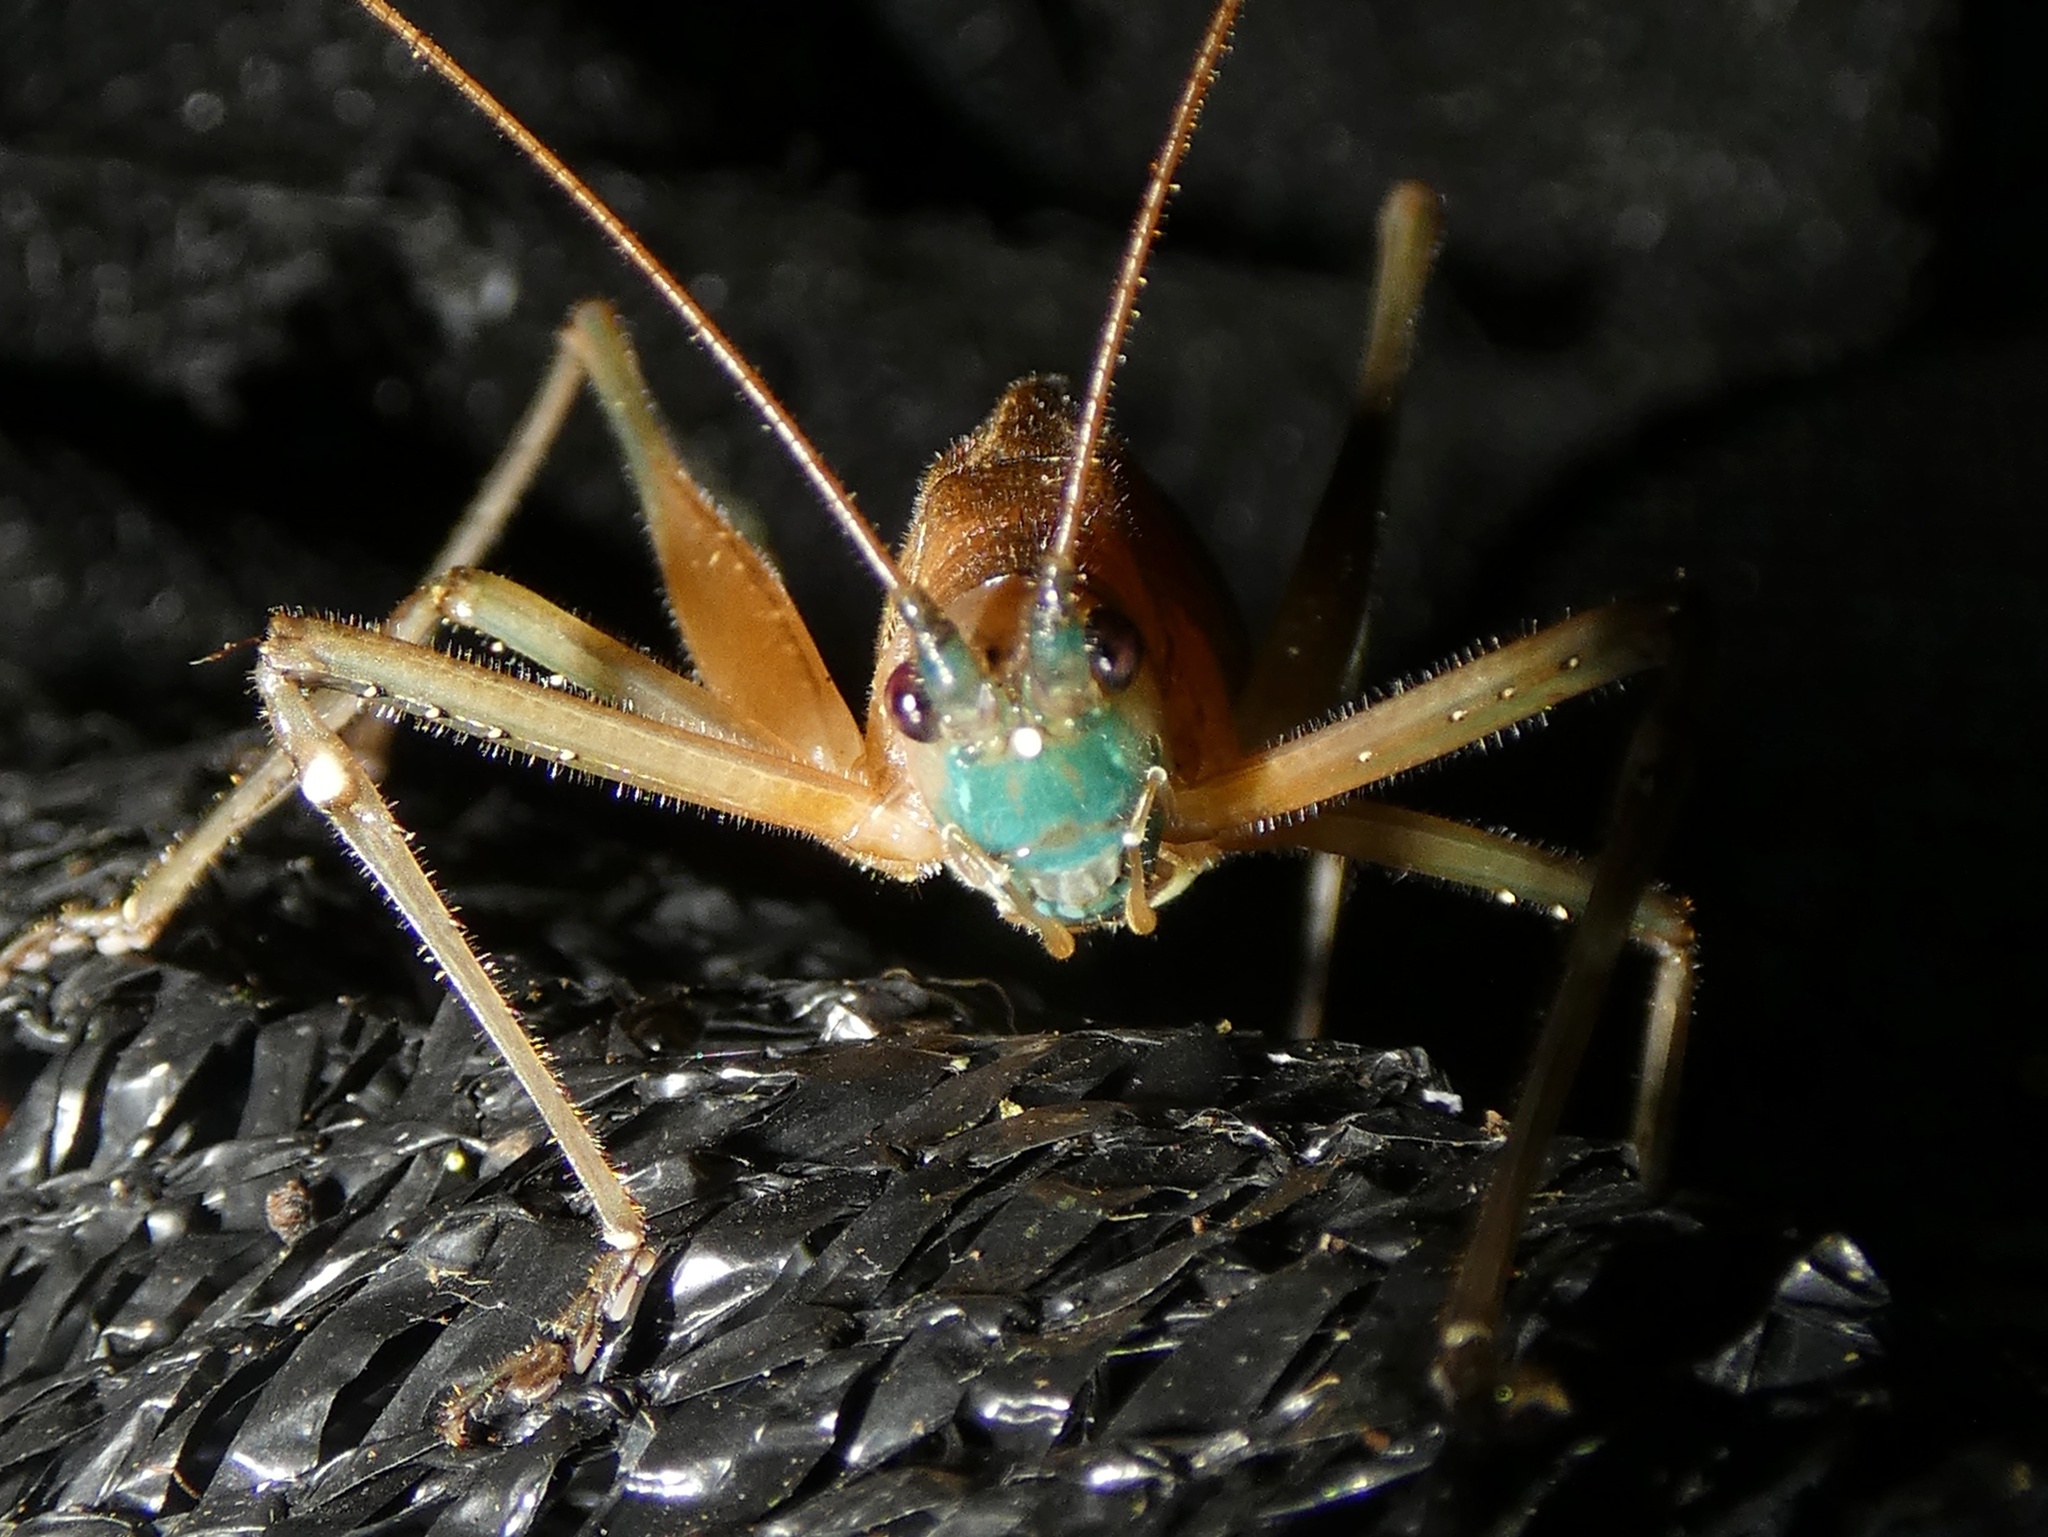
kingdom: Animalia
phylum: Arthropoda
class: Insecta
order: Orthoptera
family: Tettigoniidae
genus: Docidocercus
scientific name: Docidocercus gigliotosi
